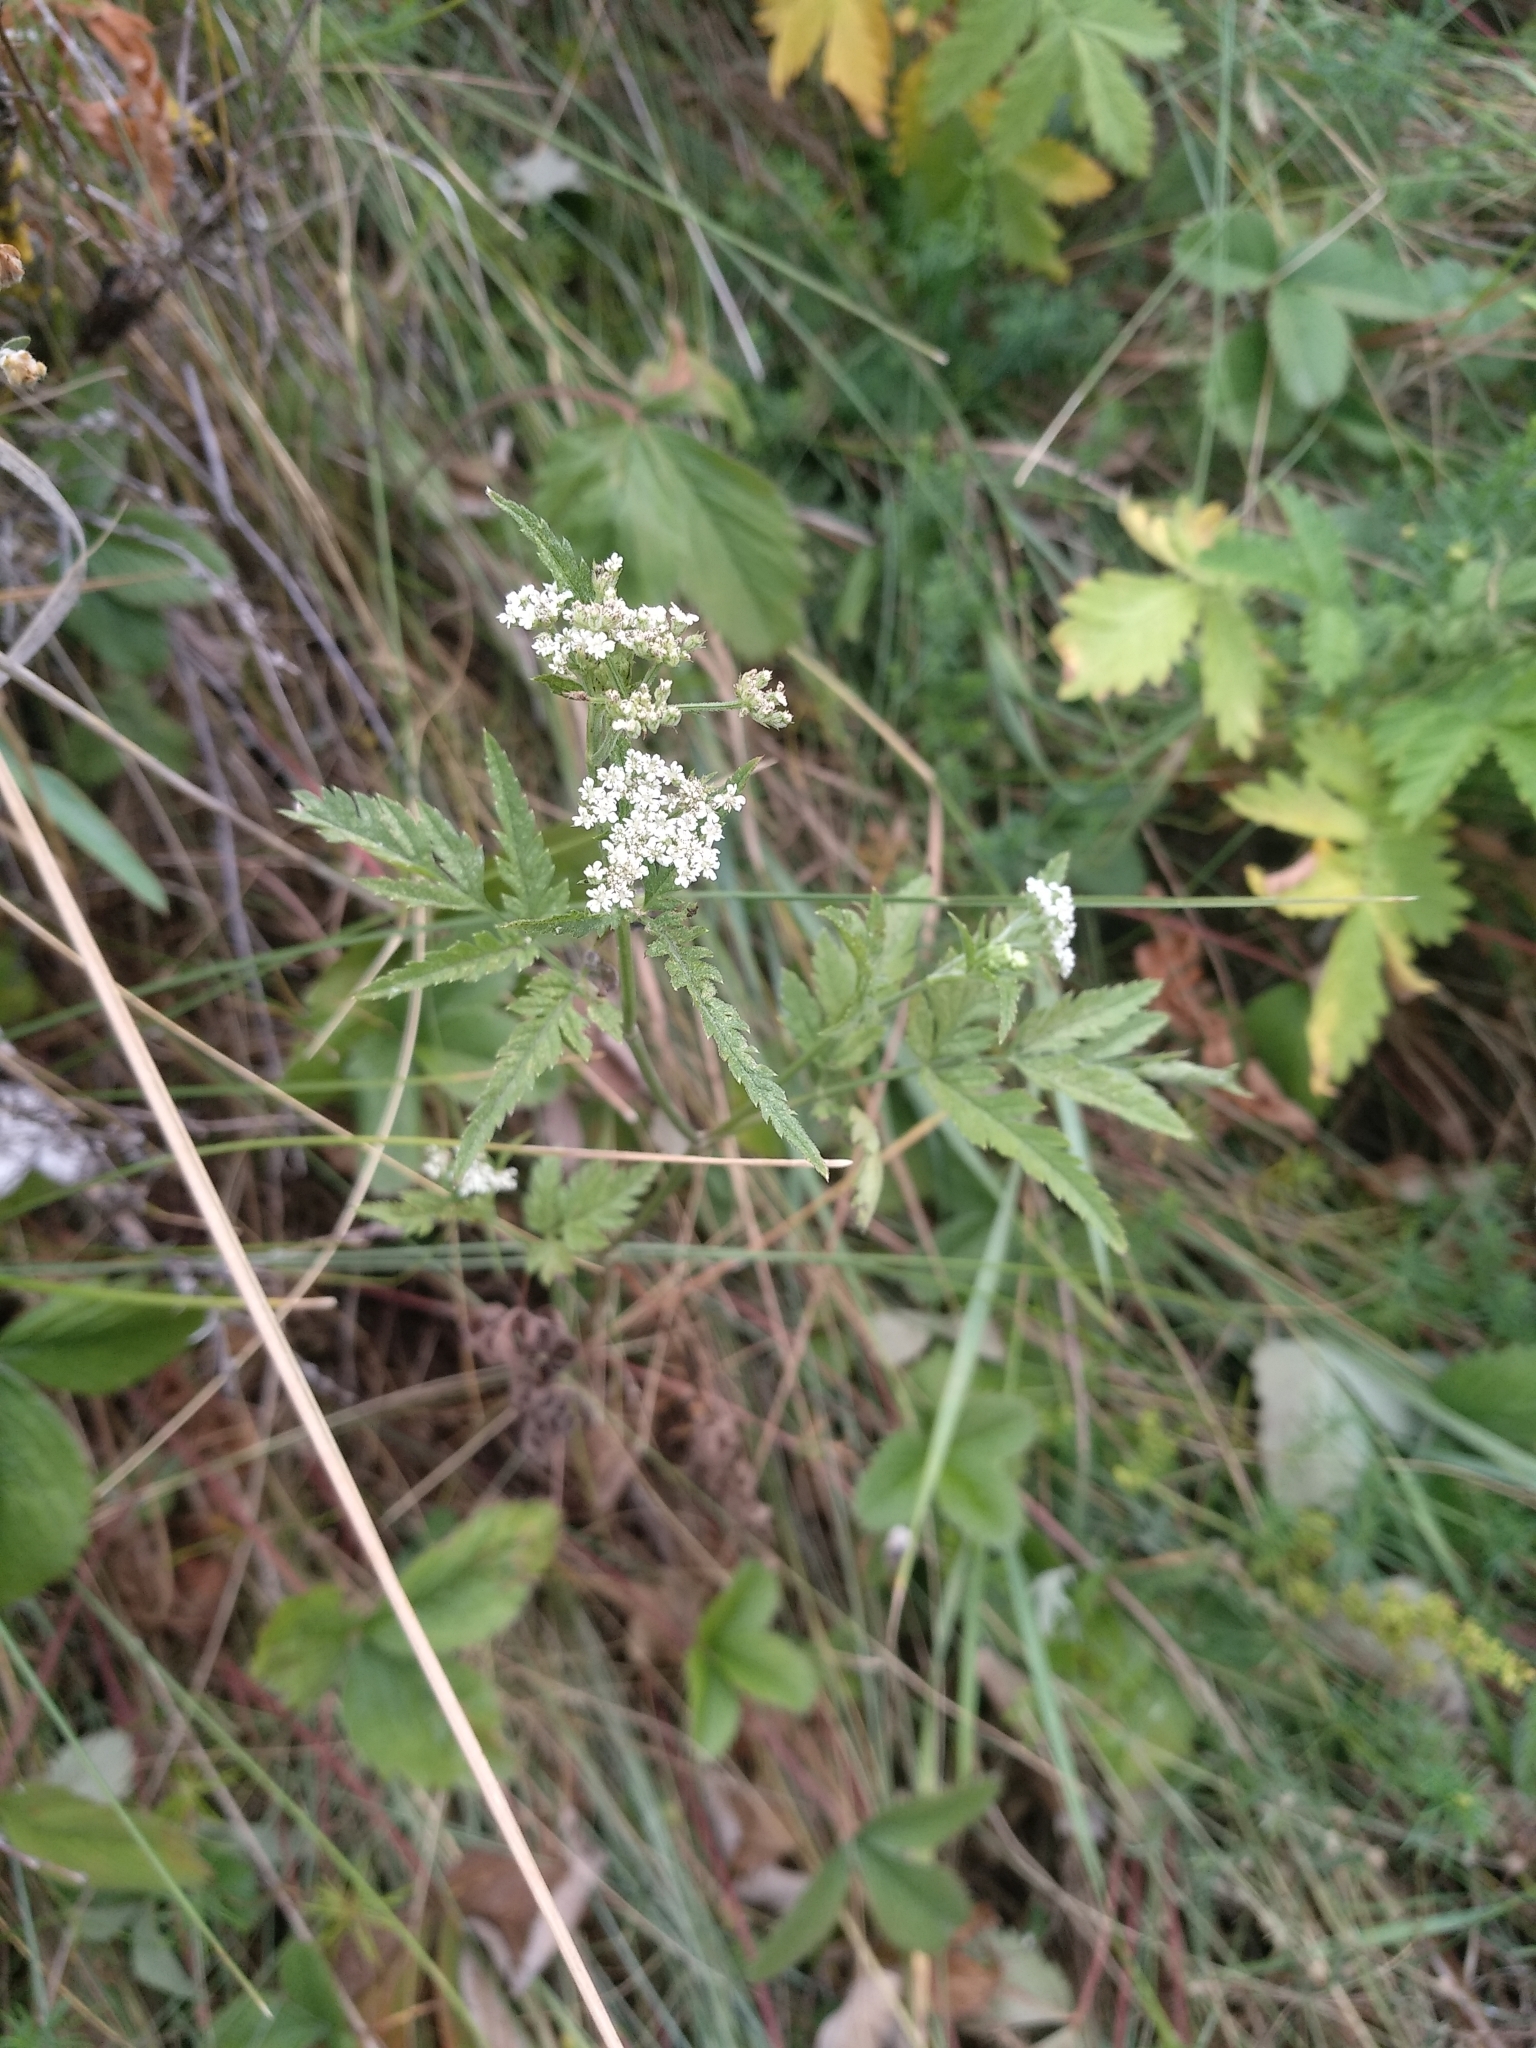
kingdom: Plantae
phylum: Tracheophyta
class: Magnoliopsida
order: Apiales
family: Apiaceae
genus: Torilis
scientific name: Torilis japonica
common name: Upright hedge-parsley
